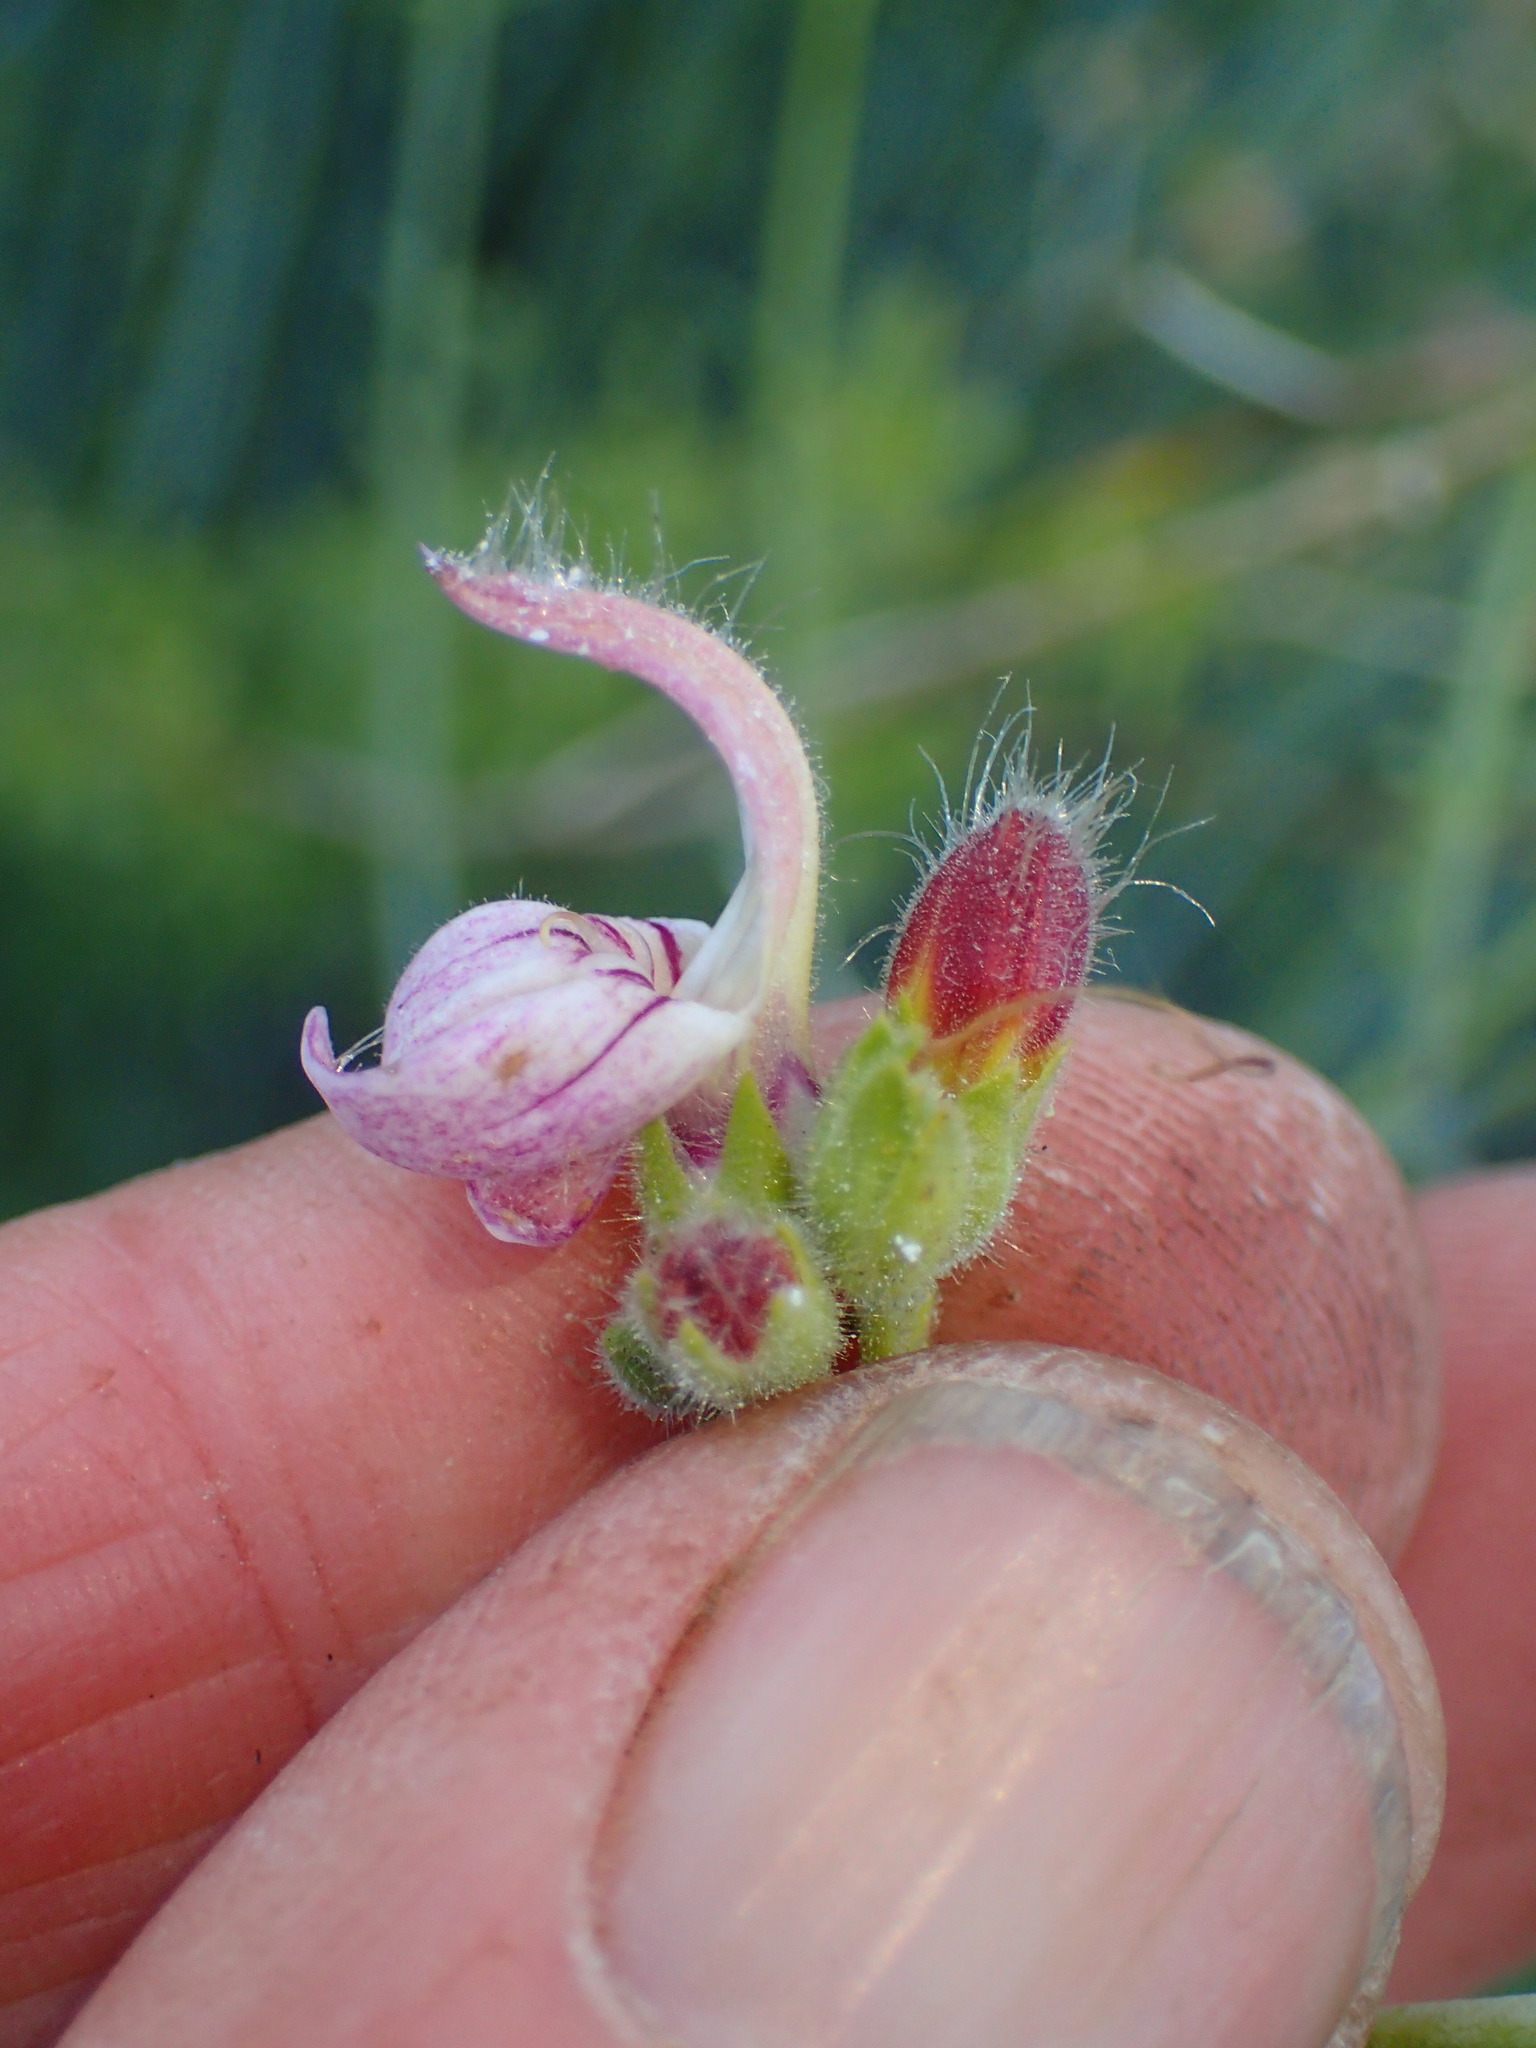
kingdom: Plantae
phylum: Tracheophyta
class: Magnoliopsida
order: Lamiales
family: Plantaginaceae
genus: Keckiella
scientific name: Keckiella breviflora
